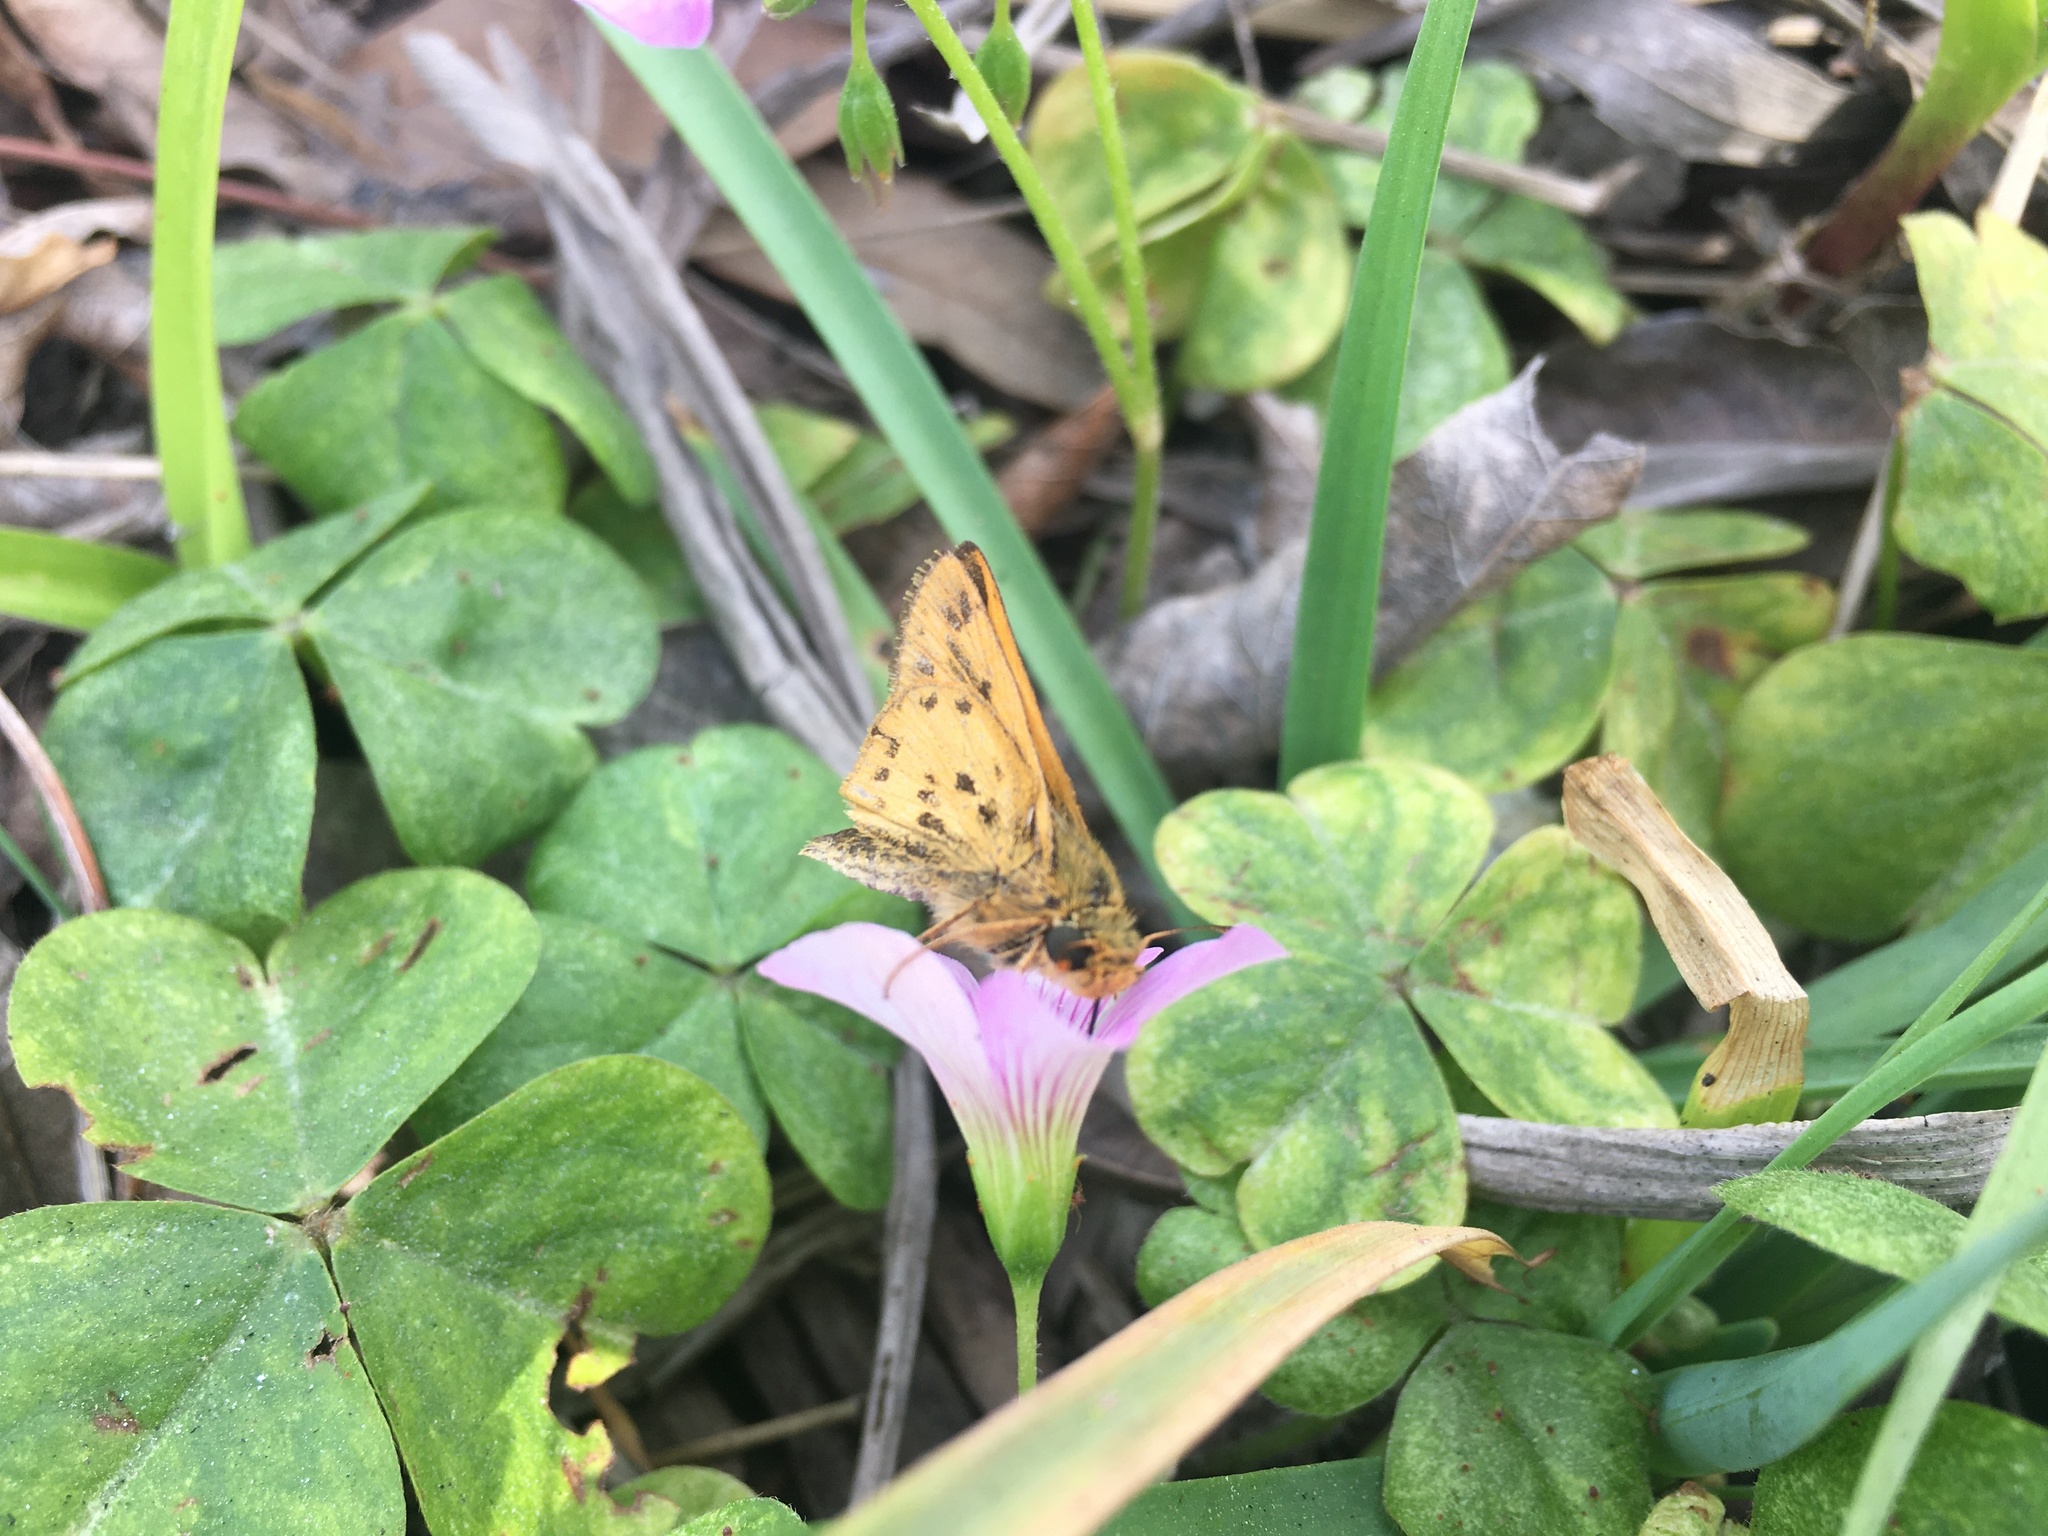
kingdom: Animalia
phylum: Arthropoda
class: Insecta
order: Lepidoptera
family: Hesperiidae
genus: Hylephila
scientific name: Hylephila phyleus
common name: Fiery skipper
